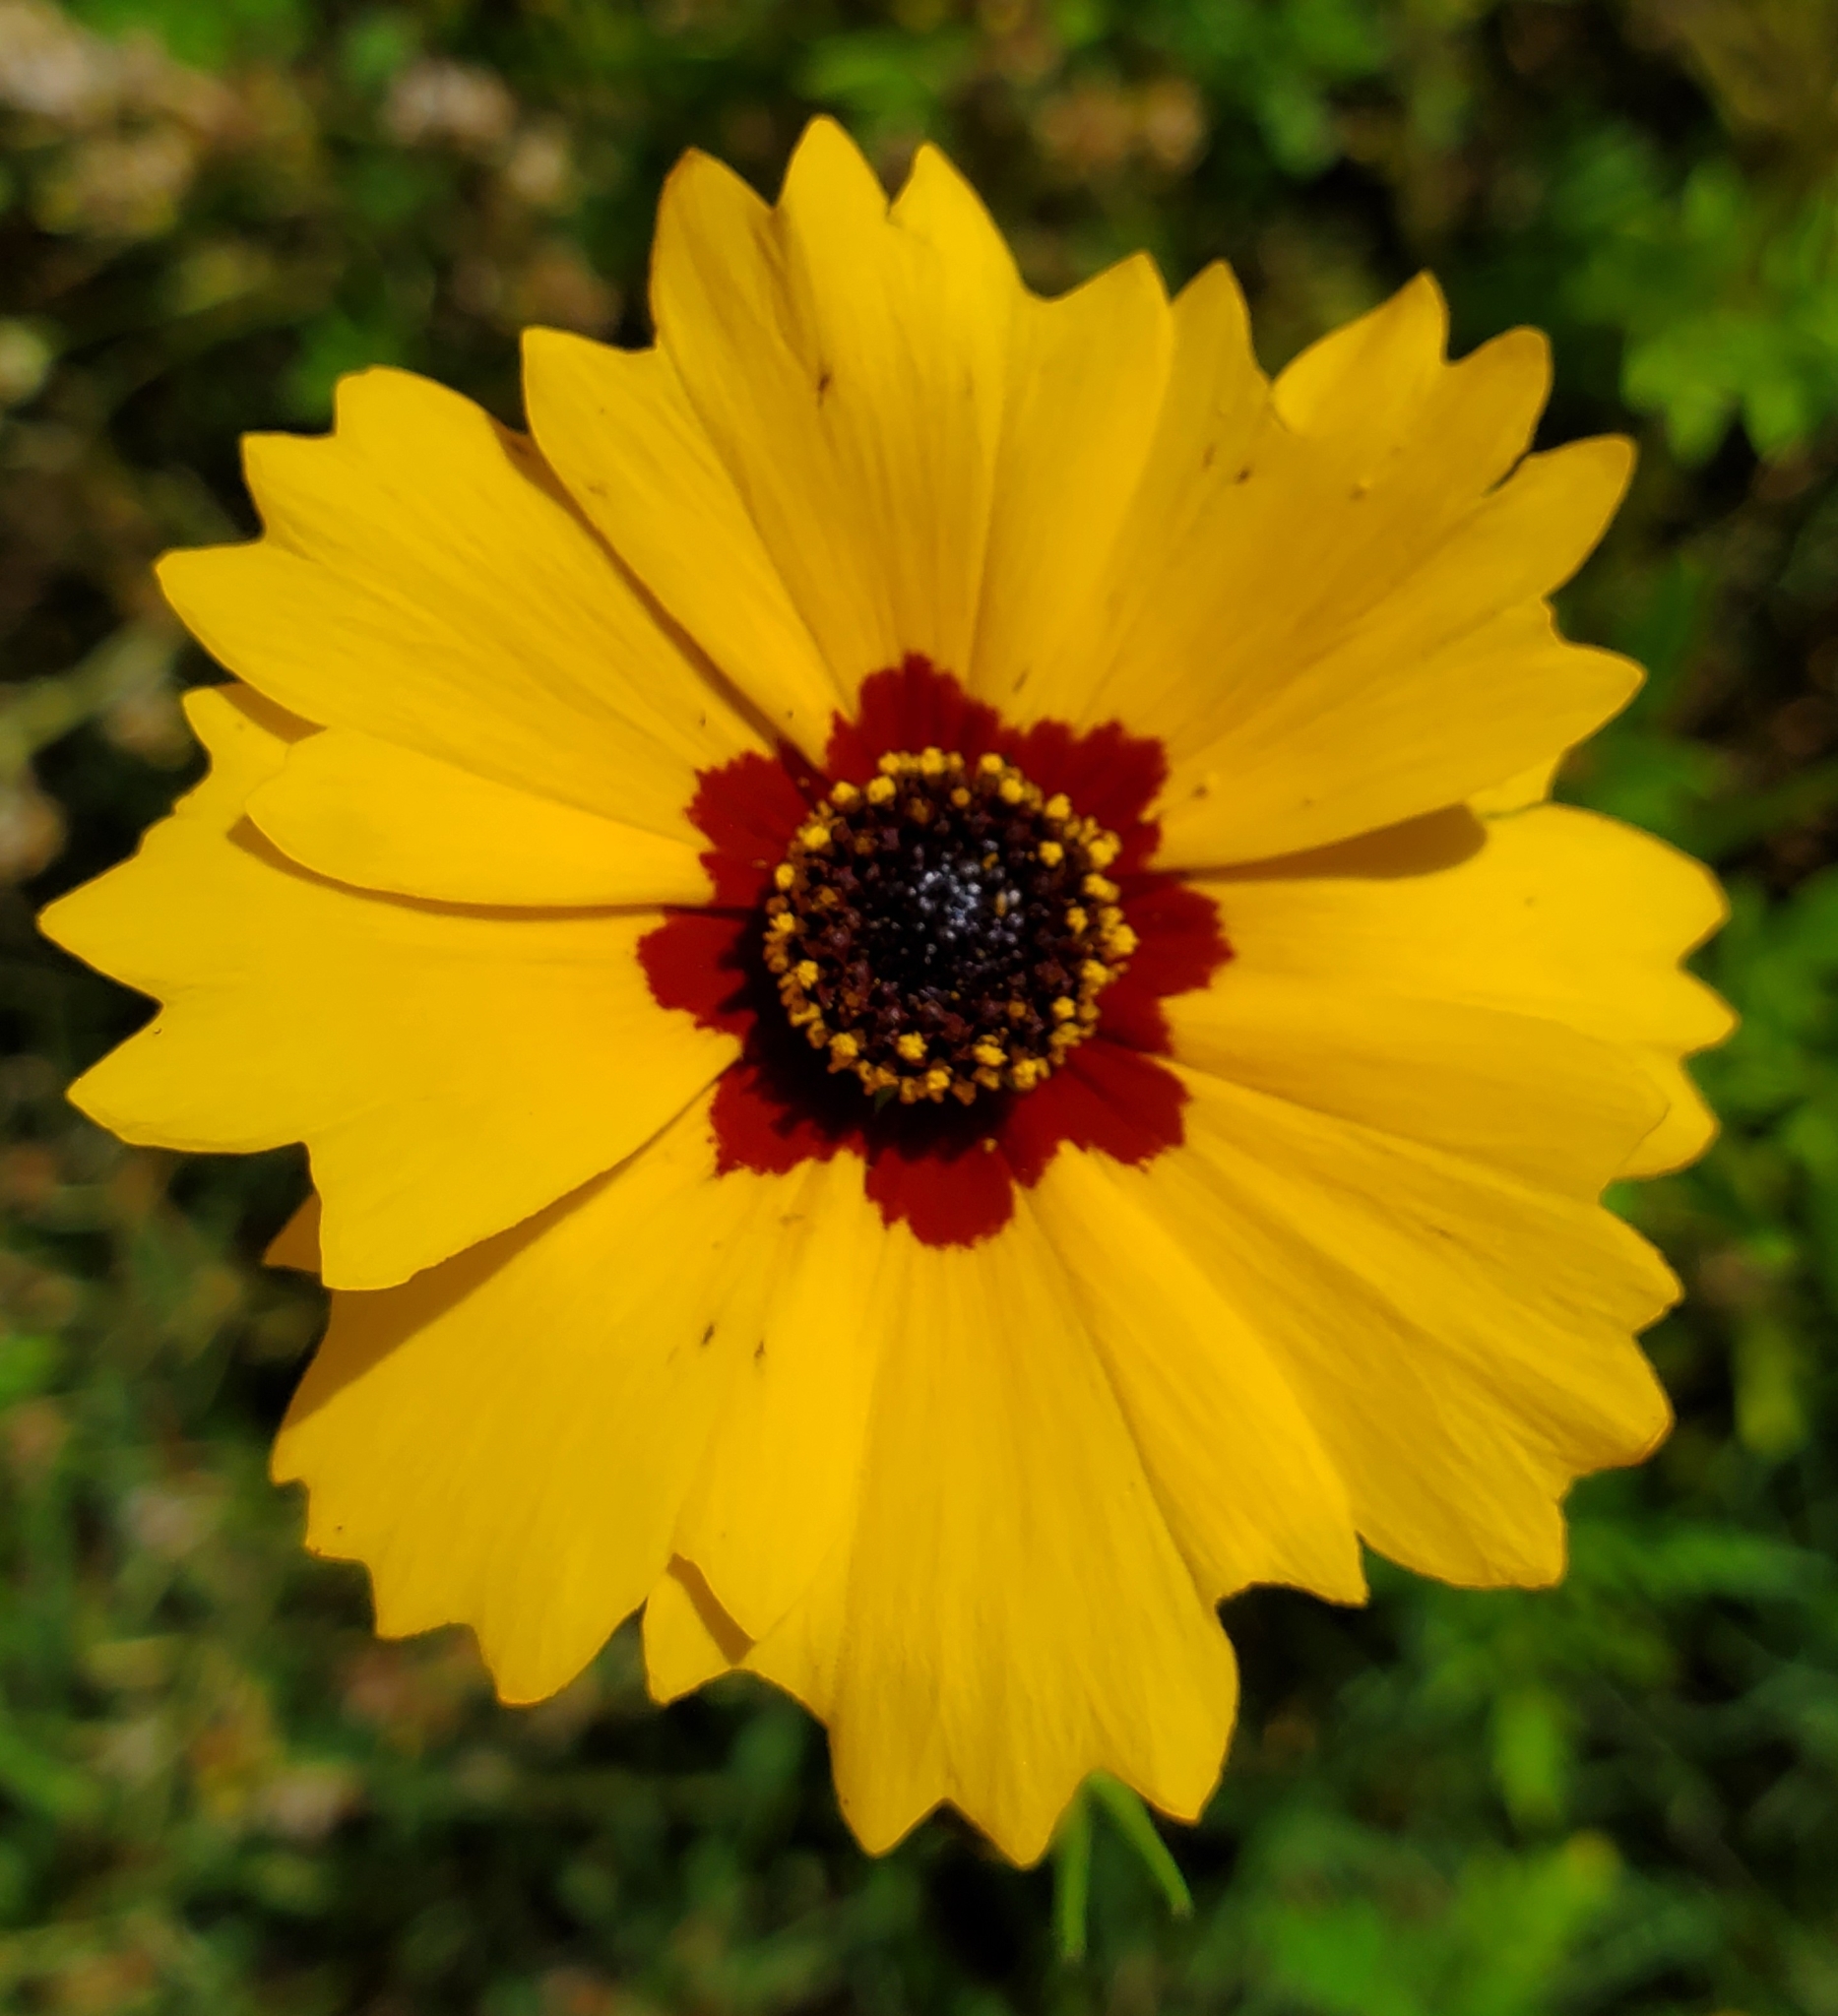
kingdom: Plantae
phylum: Tracheophyta
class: Magnoliopsida
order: Asterales
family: Asteraceae
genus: Coreopsis
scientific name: Coreopsis basalis
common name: Golden-mane coreopsis
